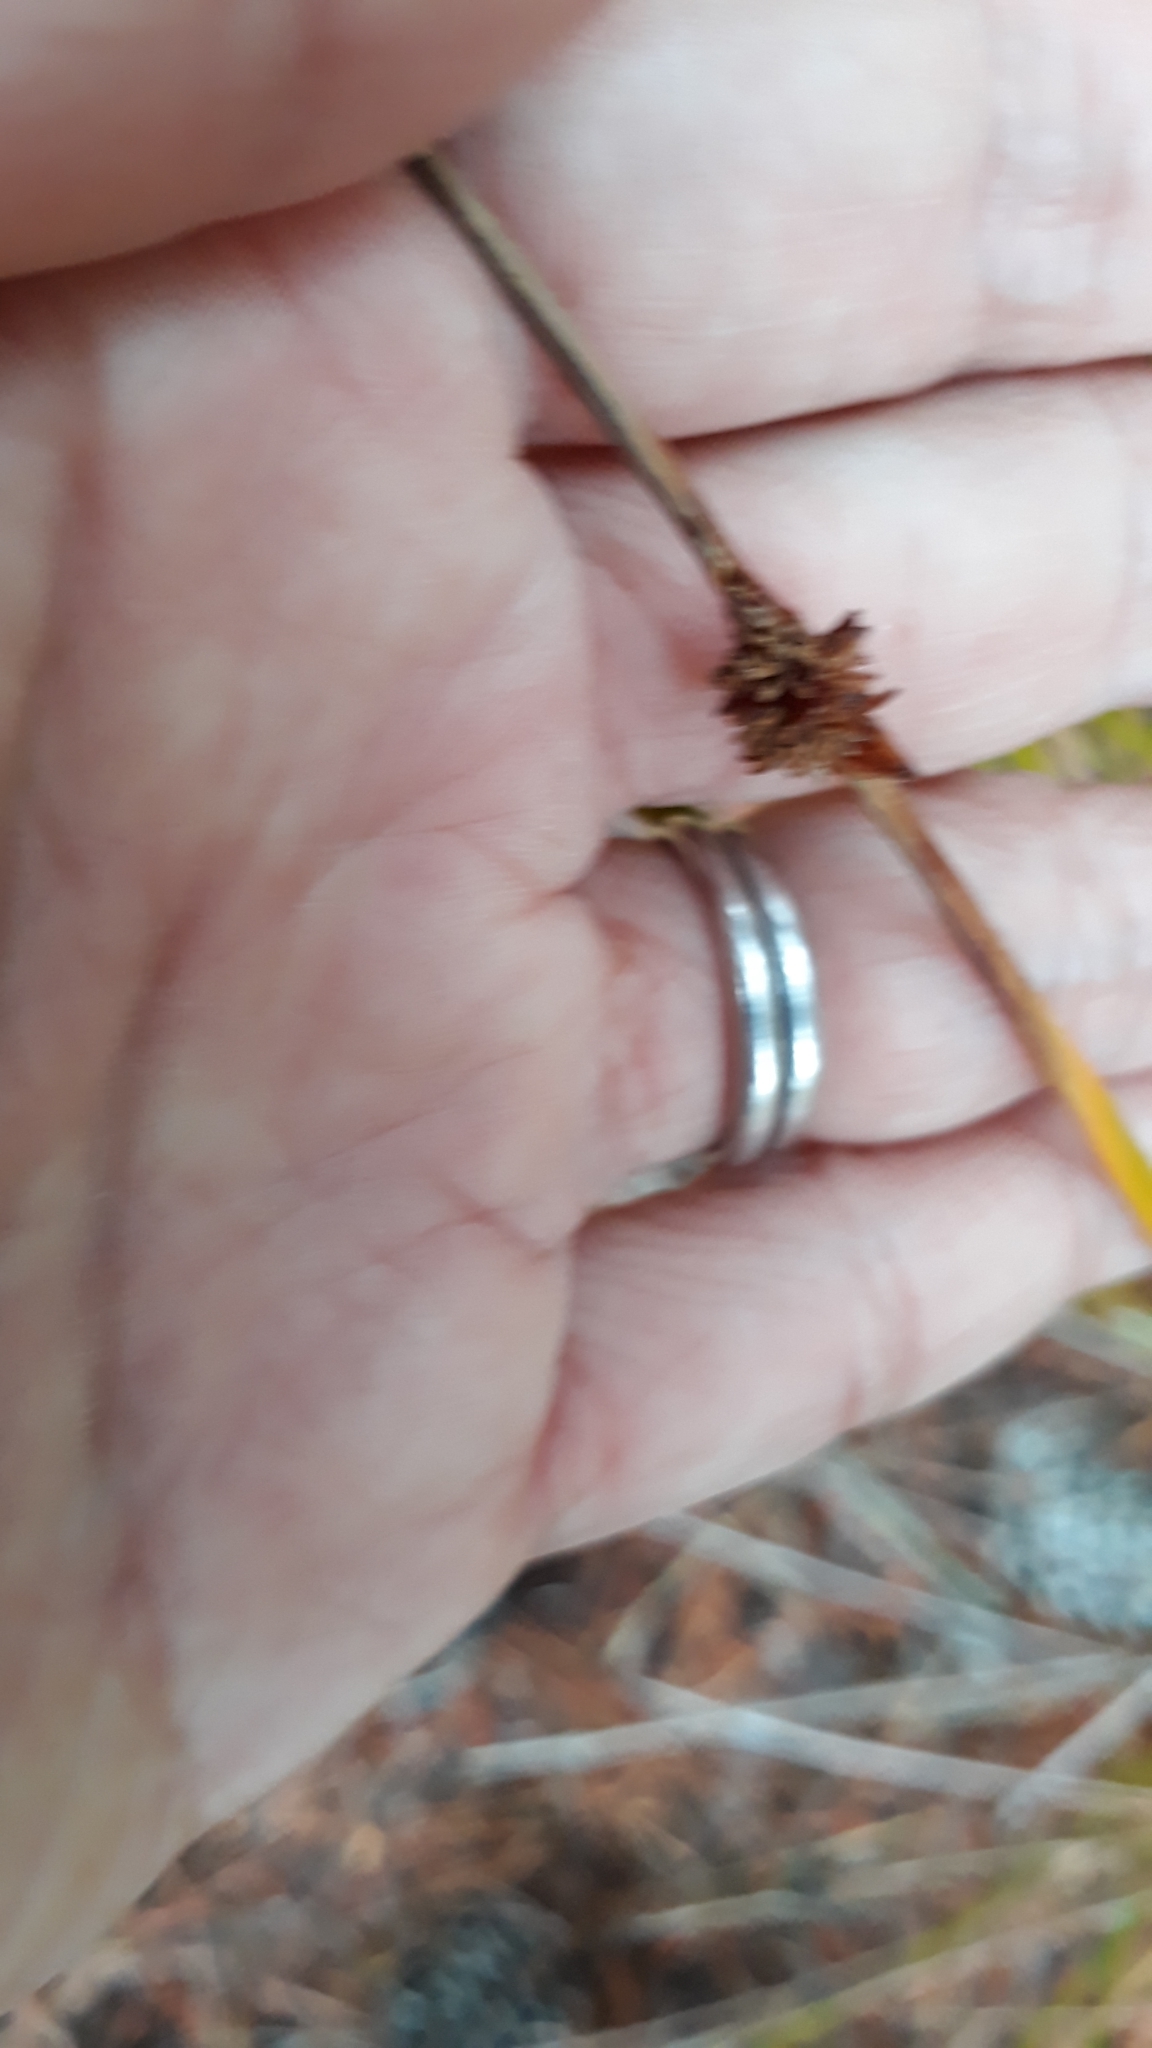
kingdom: Plantae
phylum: Tracheophyta
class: Liliopsida
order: Poales
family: Cyperaceae
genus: Ficinia
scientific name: Ficinia nodosa
